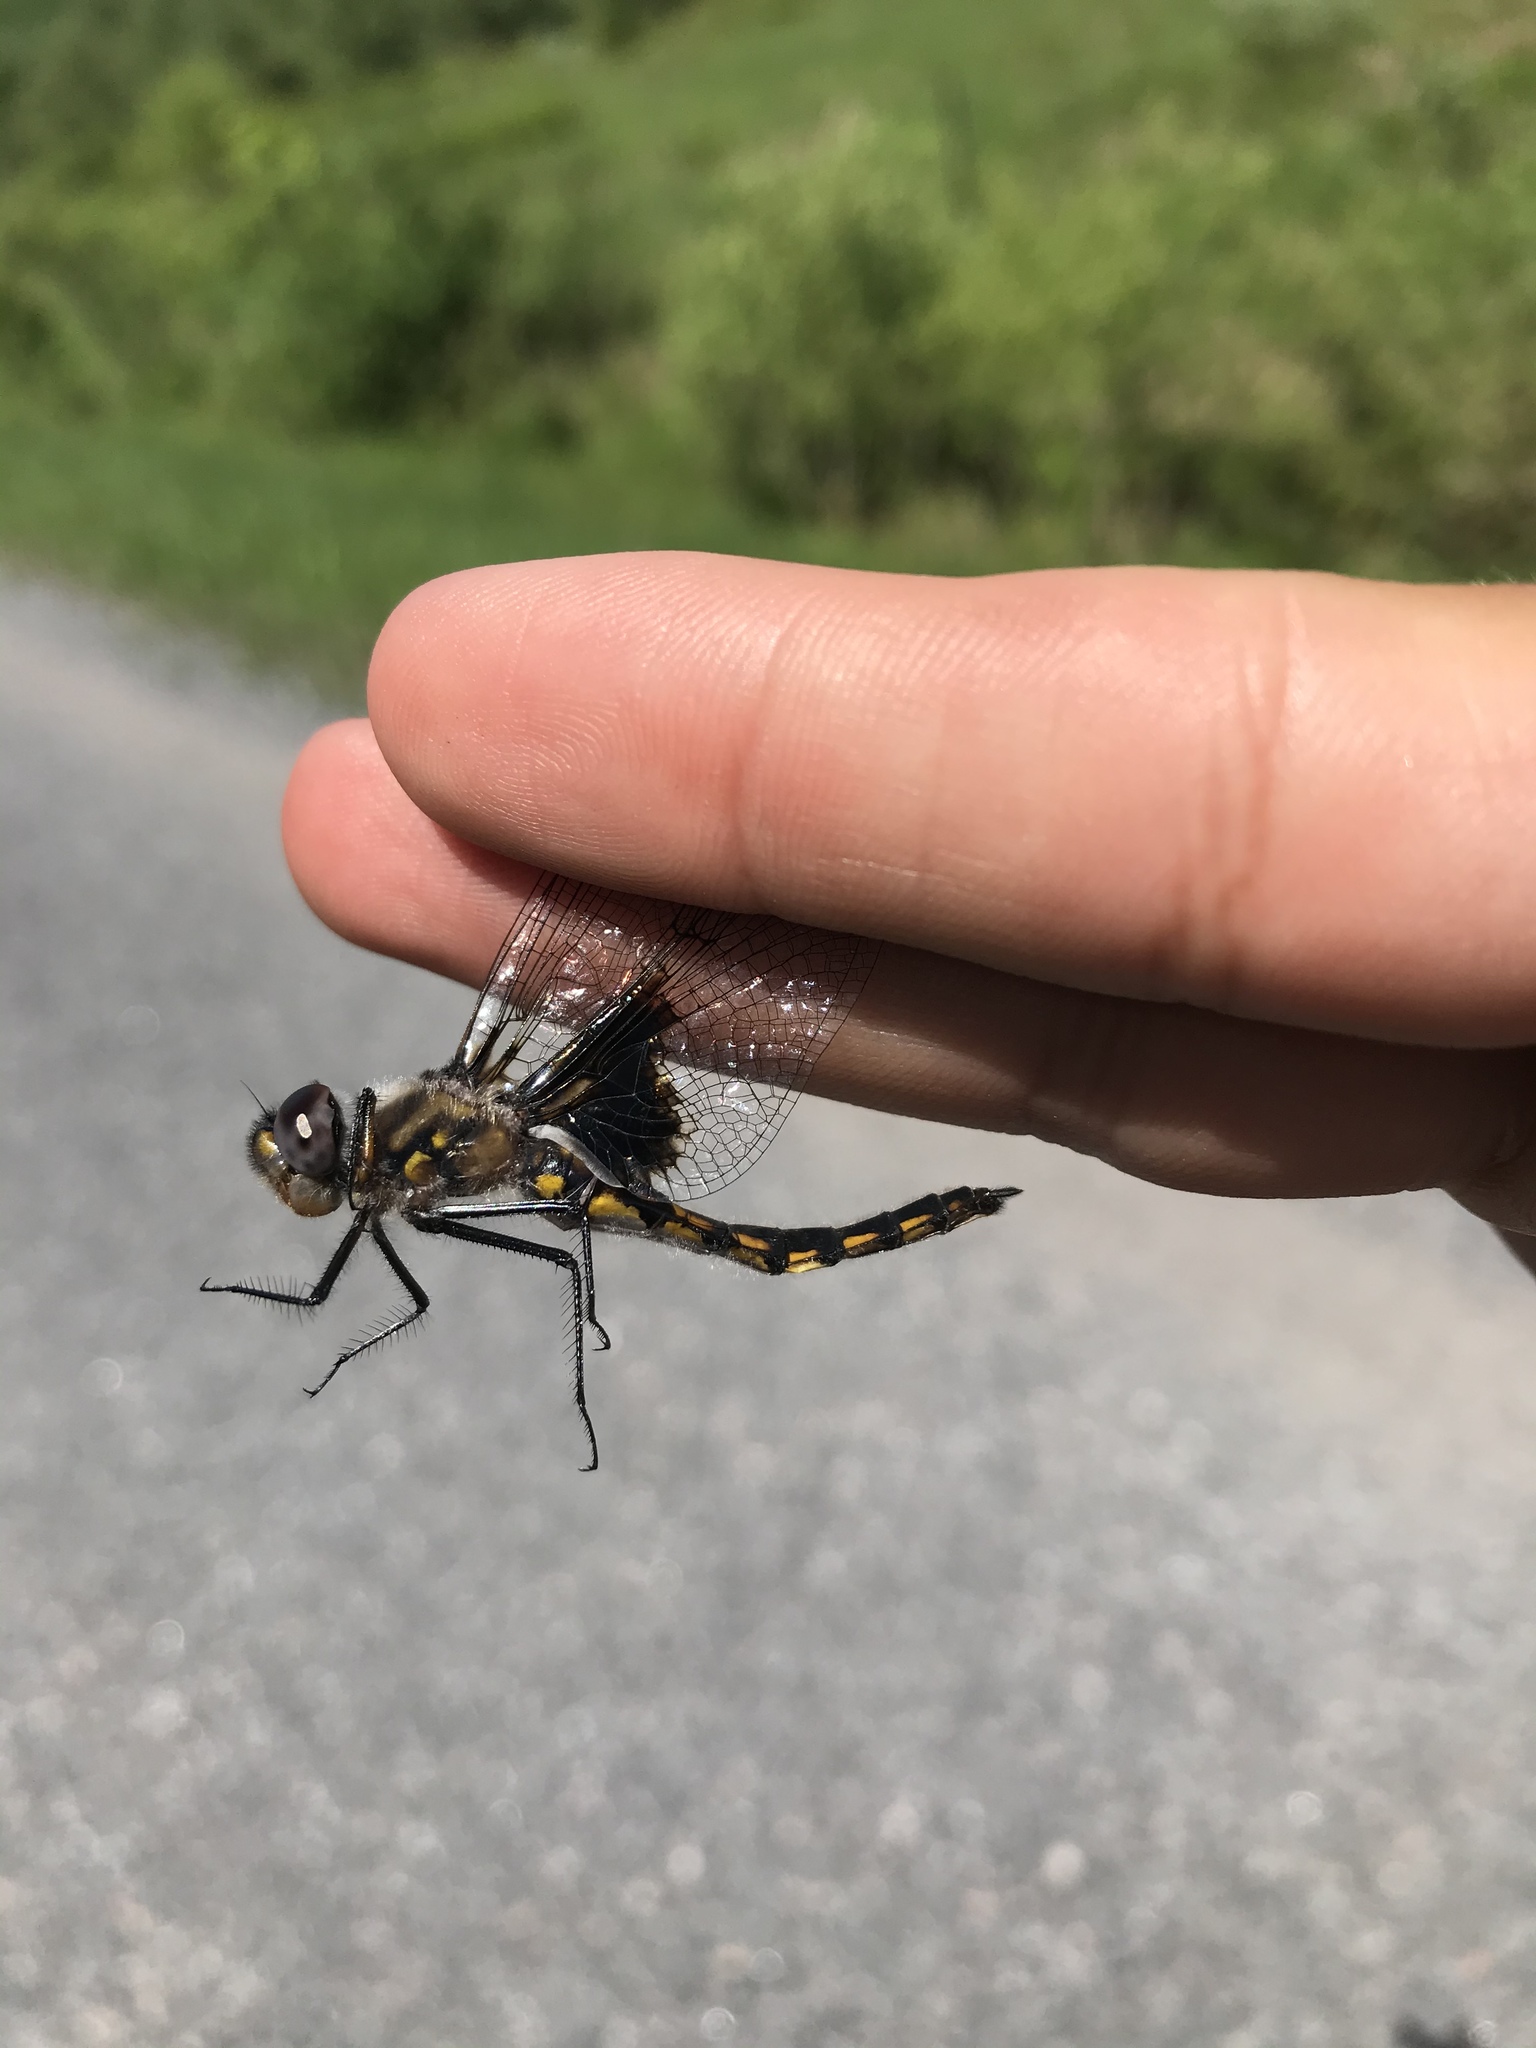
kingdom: Animalia
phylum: Arthropoda
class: Insecta
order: Odonata
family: Corduliidae
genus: Epitheca
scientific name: Epitheca cynosura
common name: Common baskettail
